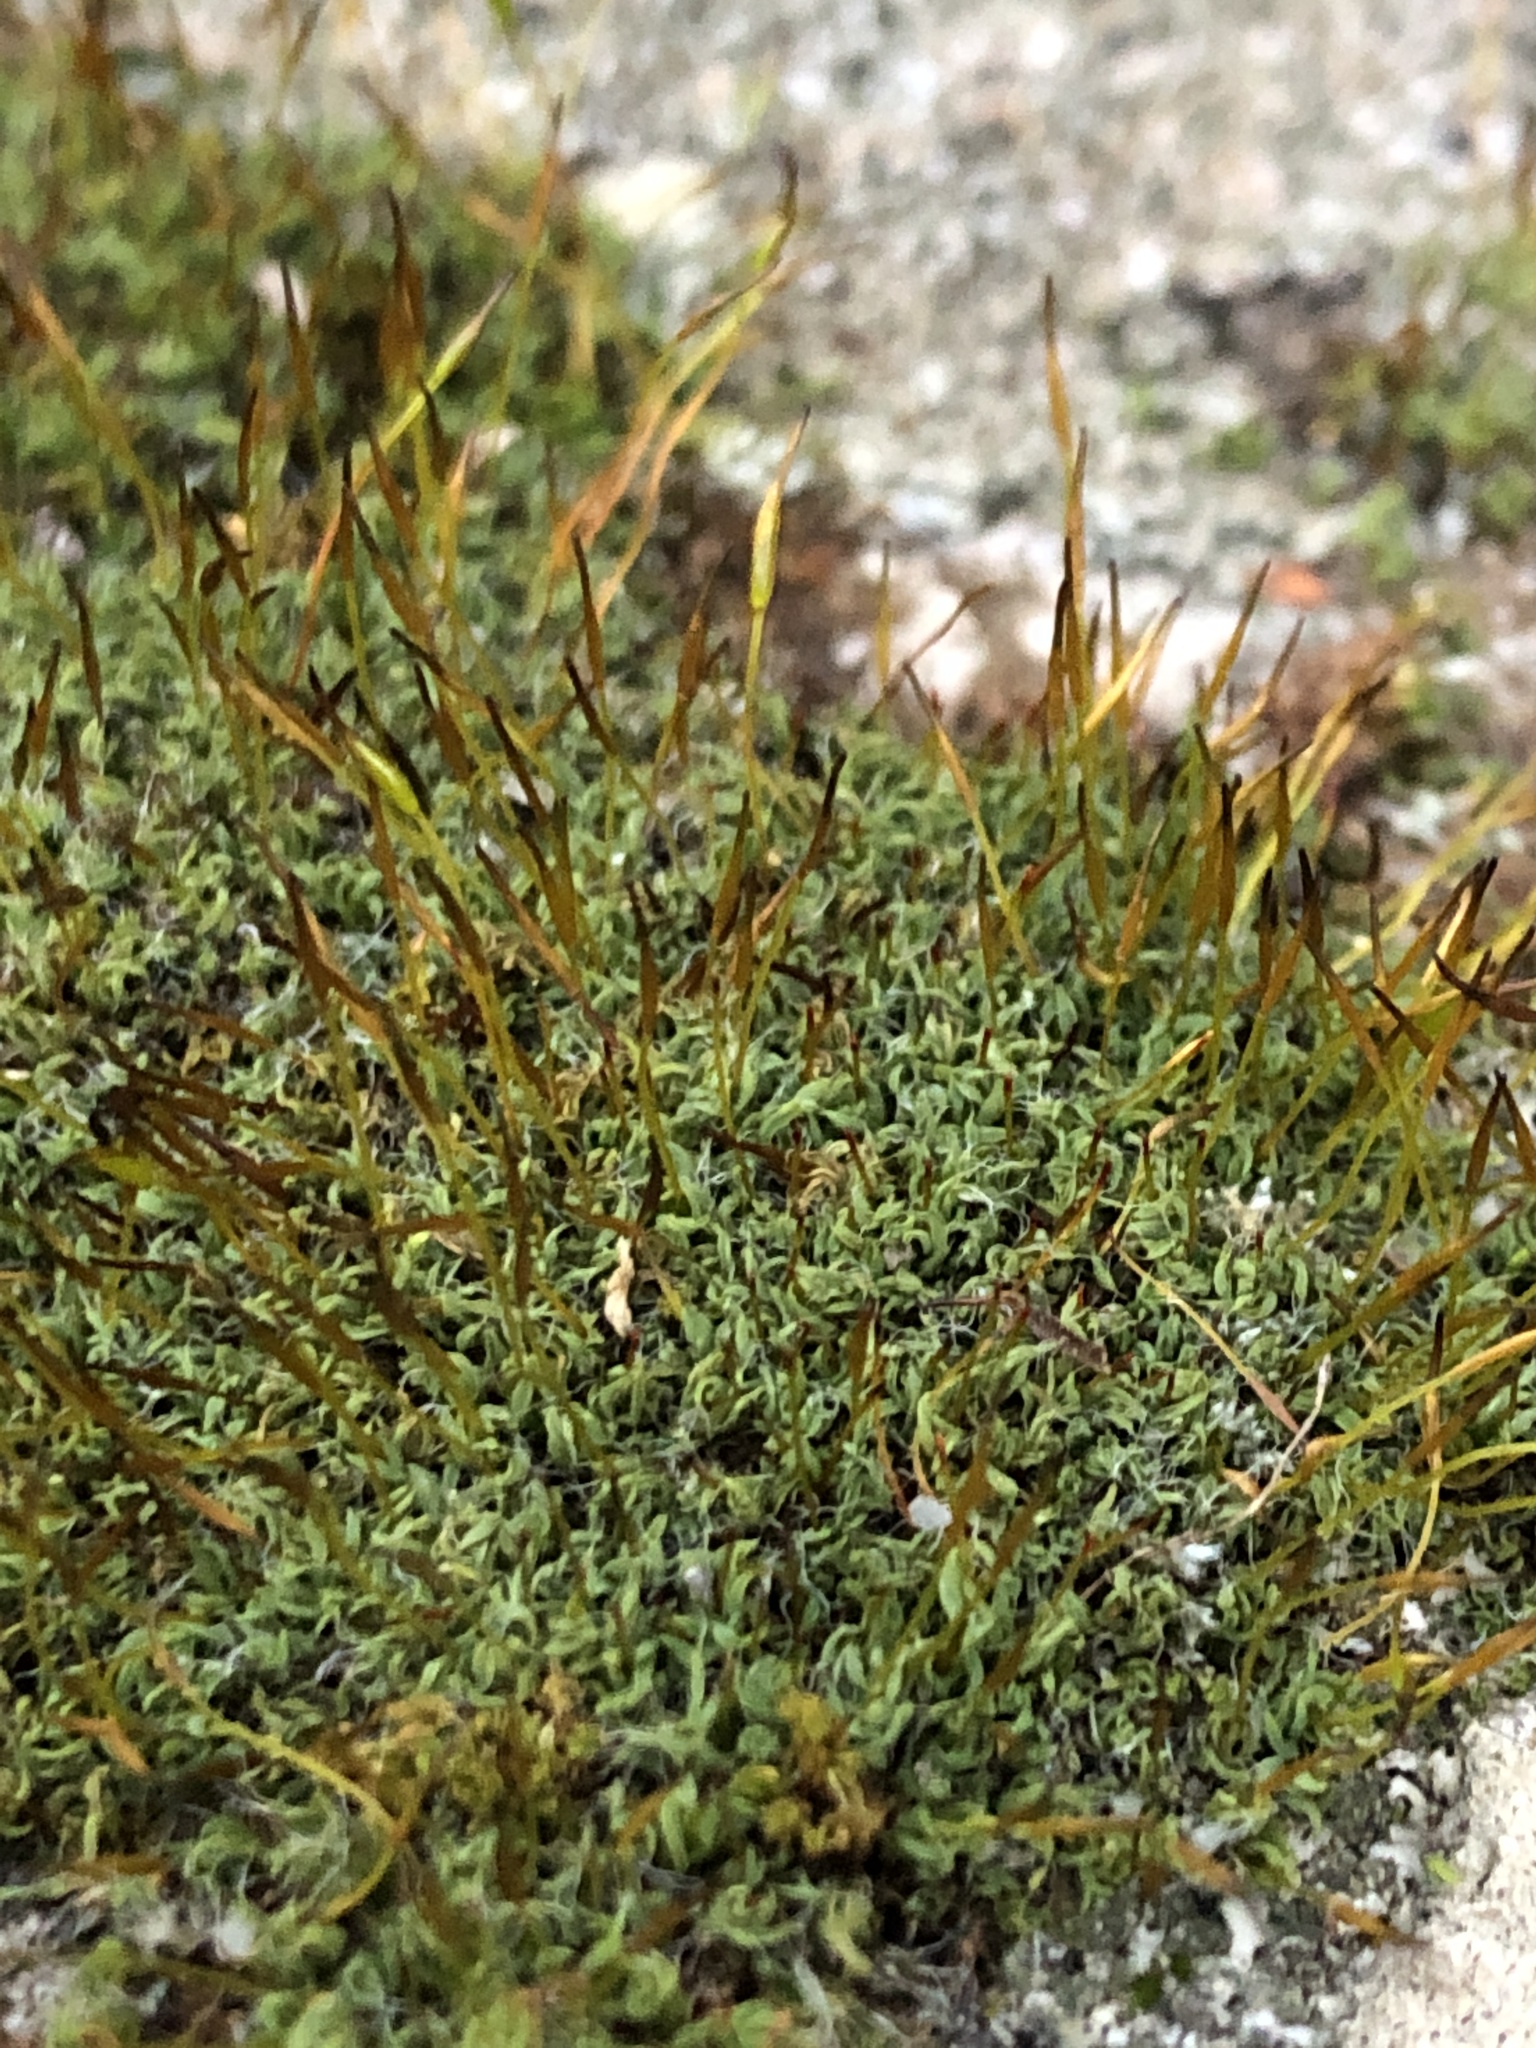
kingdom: Plantae
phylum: Bryophyta
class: Bryopsida
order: Pottiales
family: Pottiaceae
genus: Tortula
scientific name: Tortula muralis
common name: Wall screw-moss
